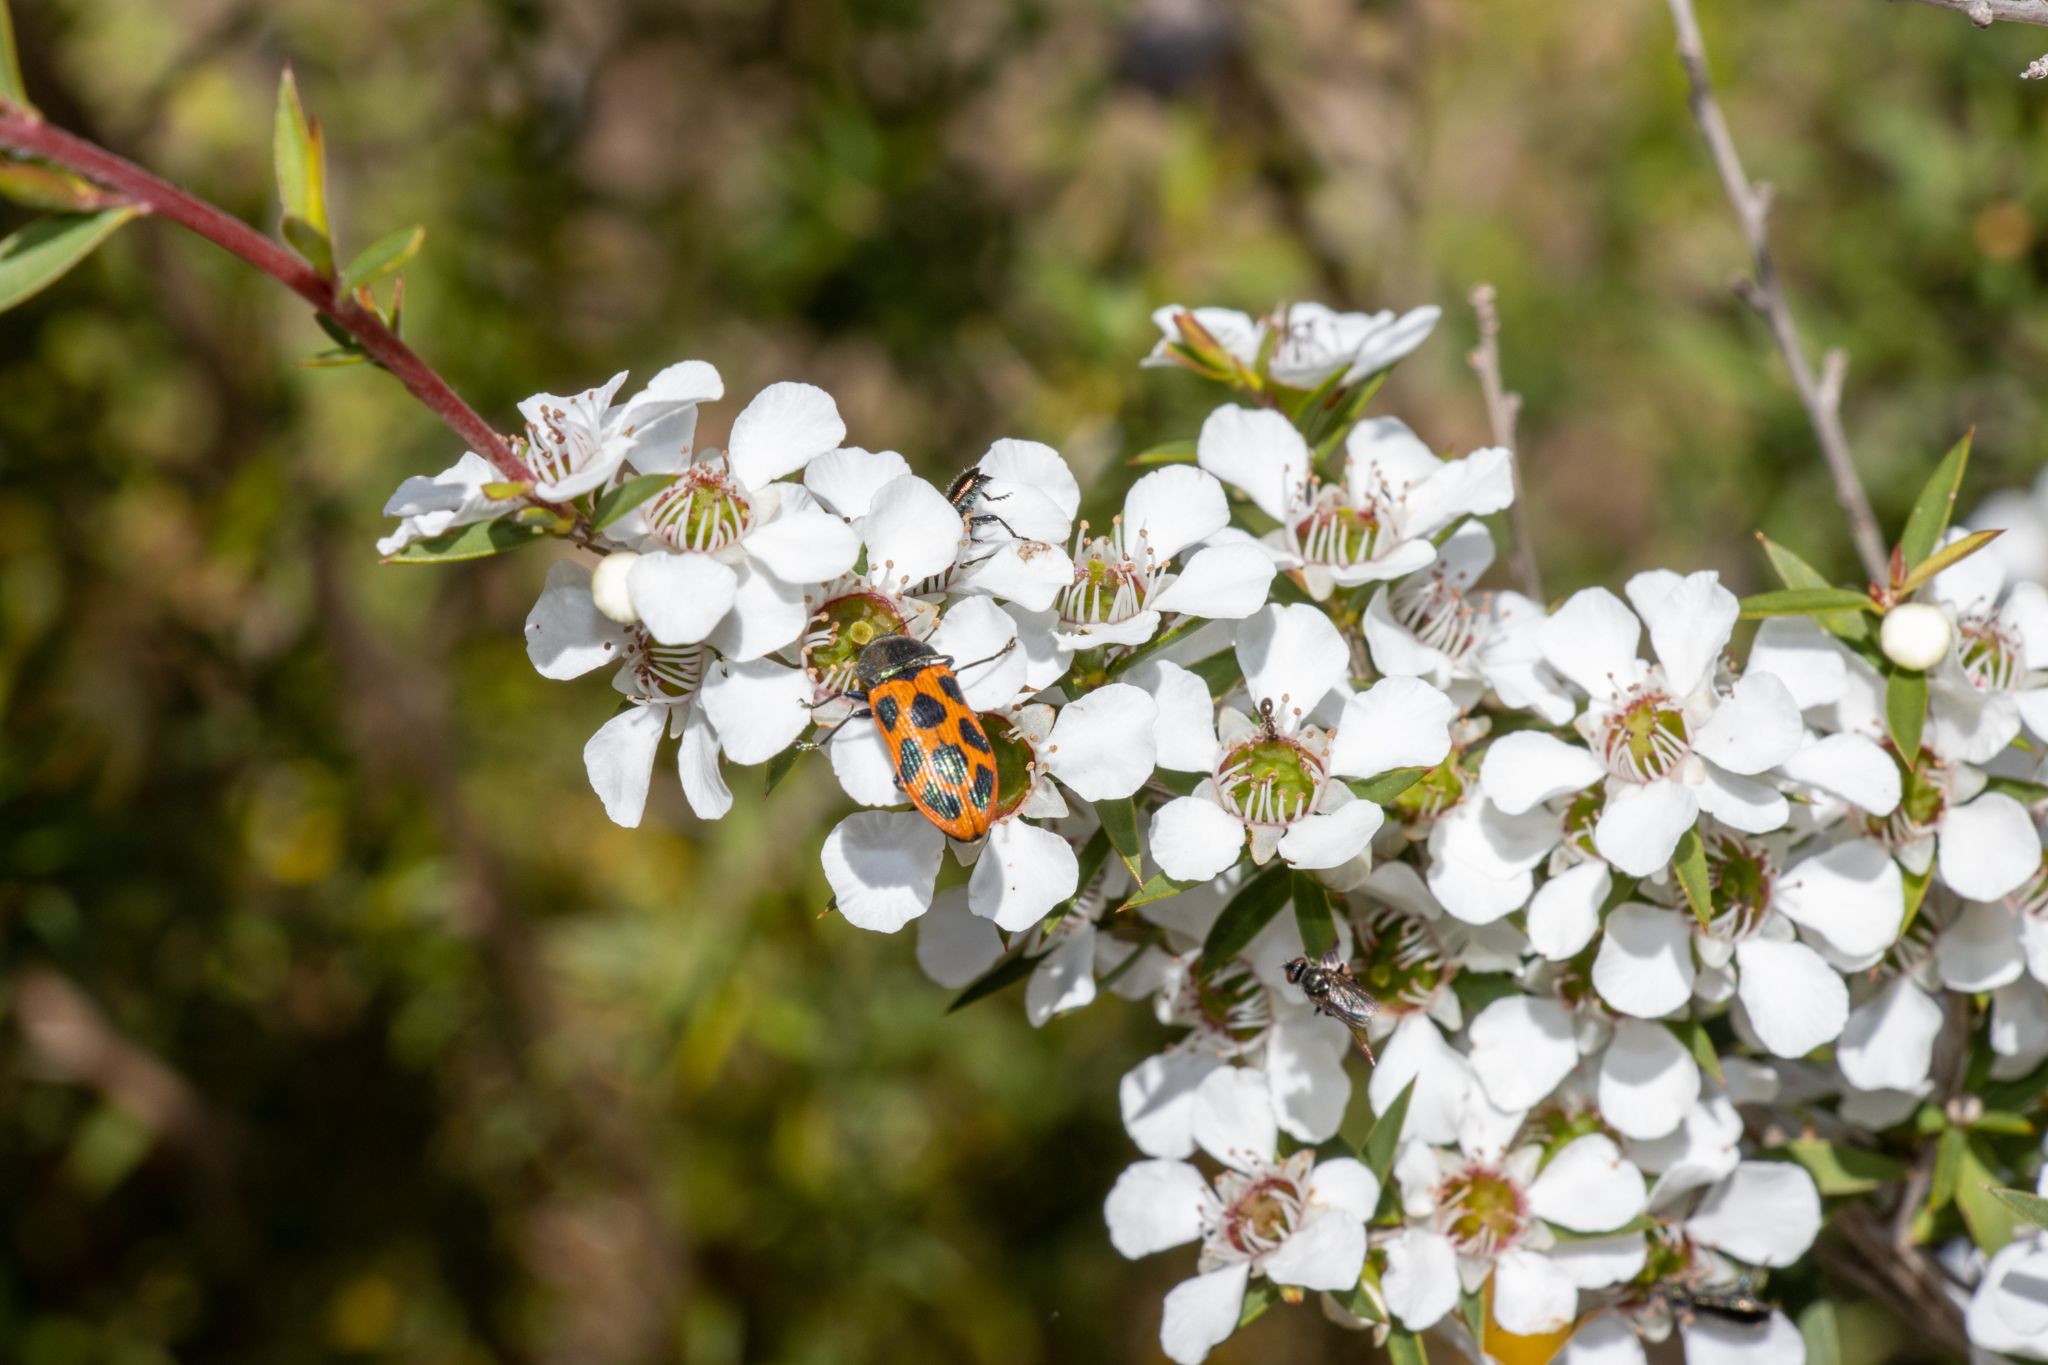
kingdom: Animalia
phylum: Arthropoda
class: Insecta
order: Coleoptera
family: Buprestidae
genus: Castiarina
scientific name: Castiarina octomaculata
